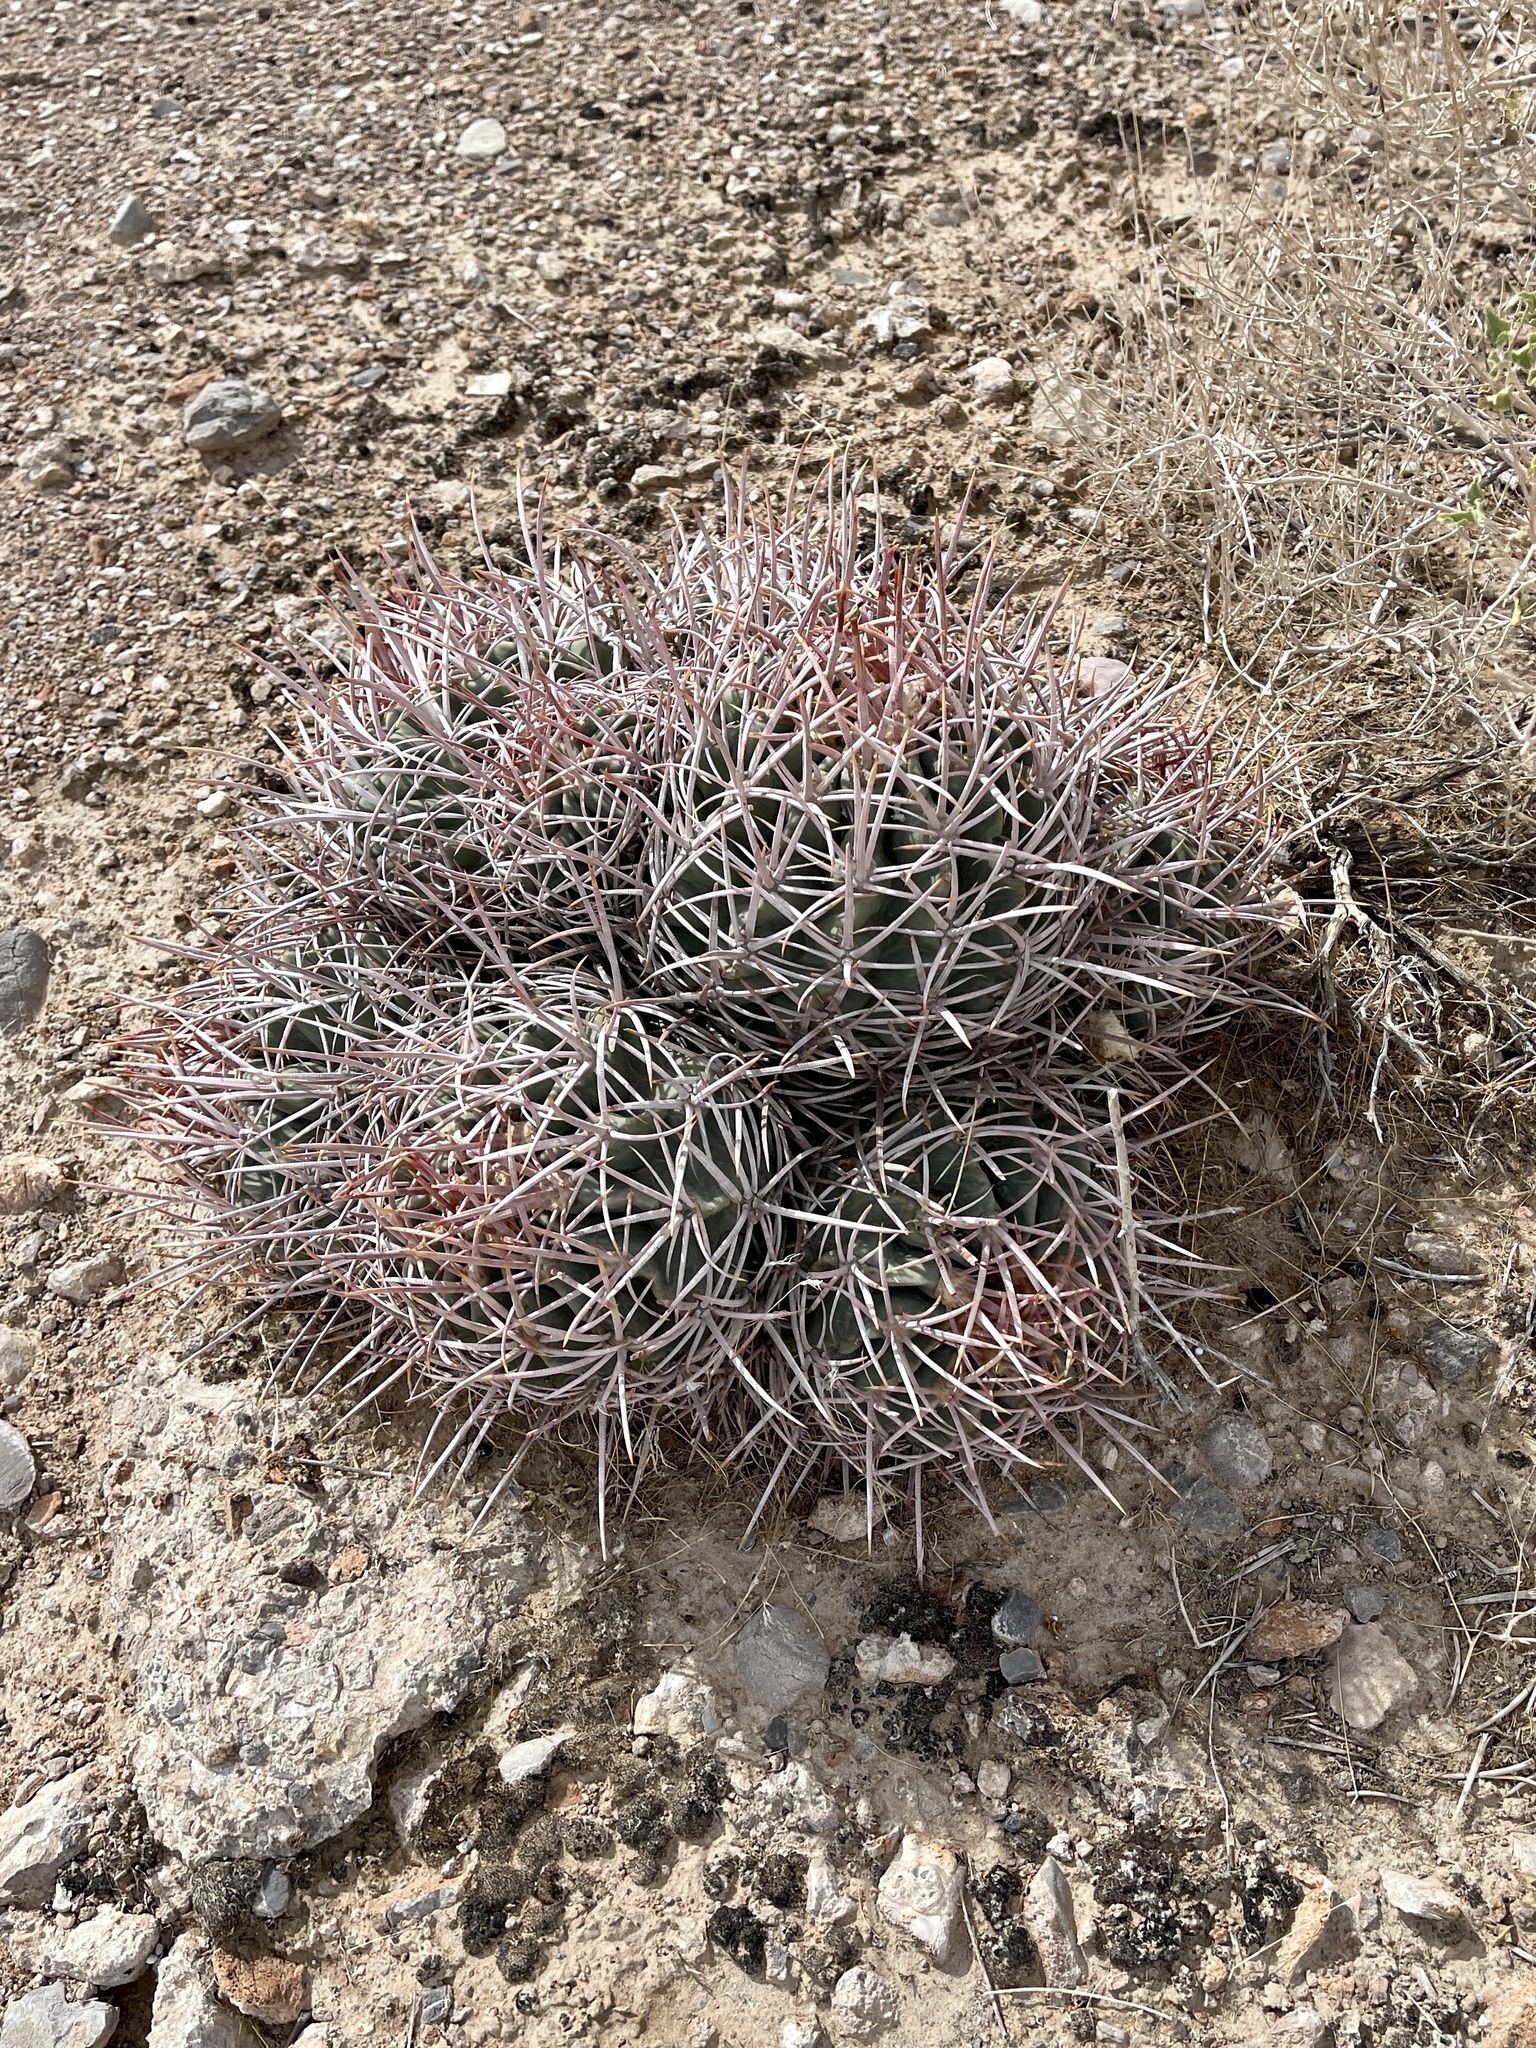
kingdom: Plantae
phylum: Tracheophyta
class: Magnoliopsida
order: Caryophyllales
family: Cactaceae
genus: Echinocactus
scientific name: Echinocactus polycephalus
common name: Cottontop cactus
